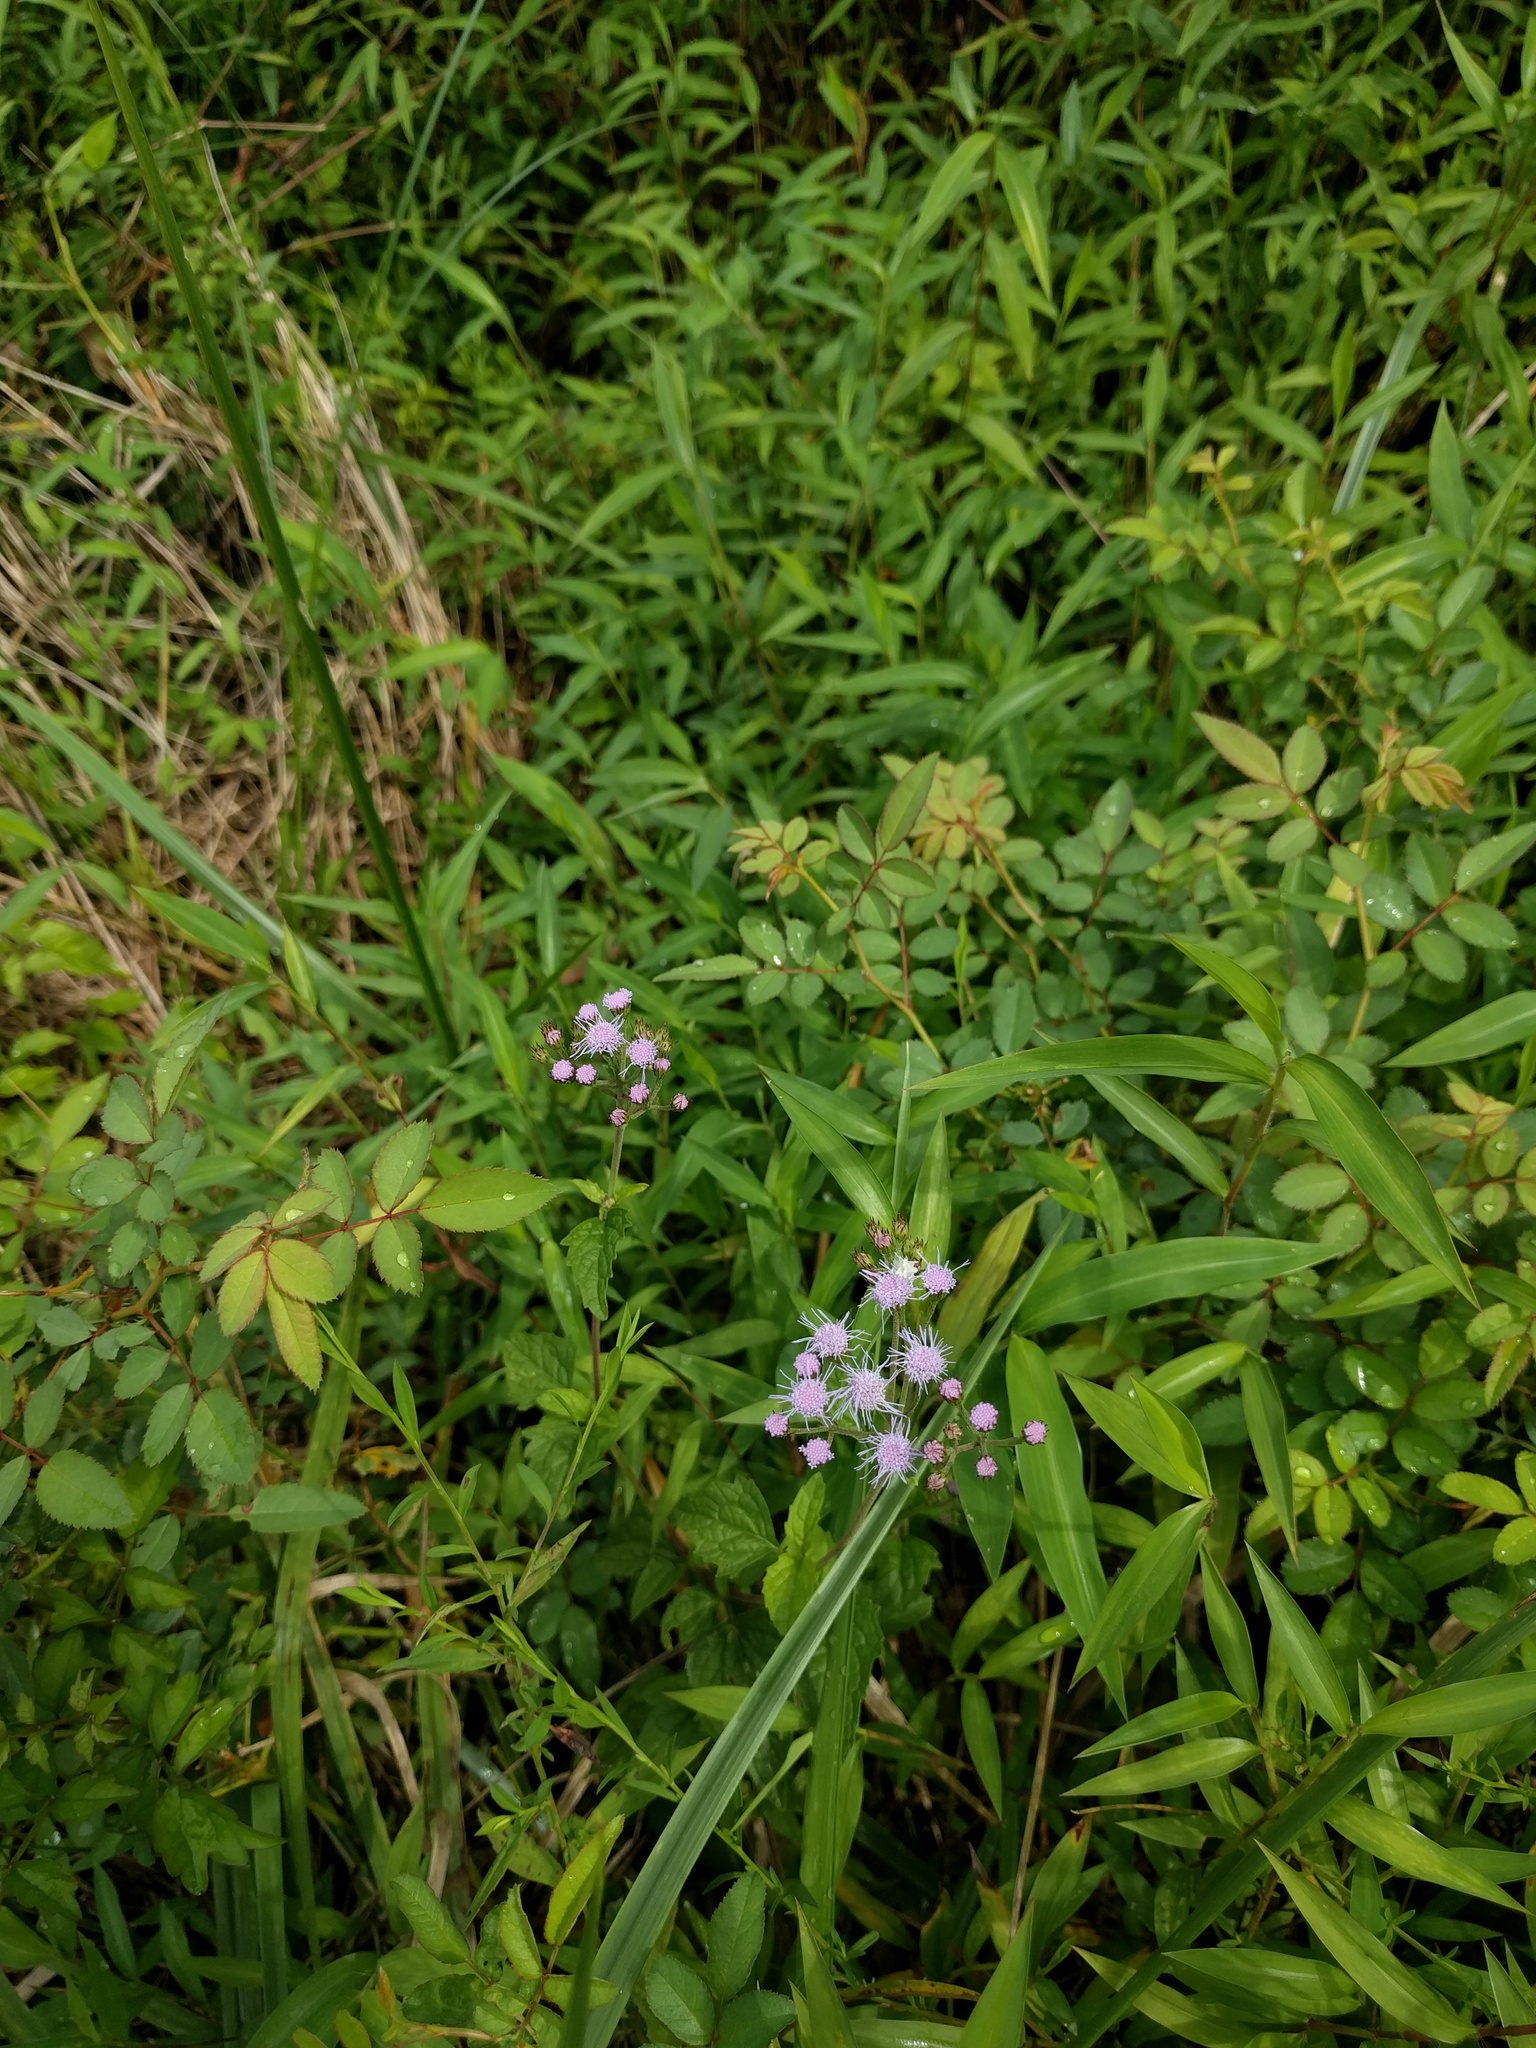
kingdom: Plantae
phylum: Tracheophyta
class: Magnoliopsida
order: Asterales
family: Asteraceae
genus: Conoclinium
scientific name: Conoclinium coelestinum
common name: Blue mistflower
